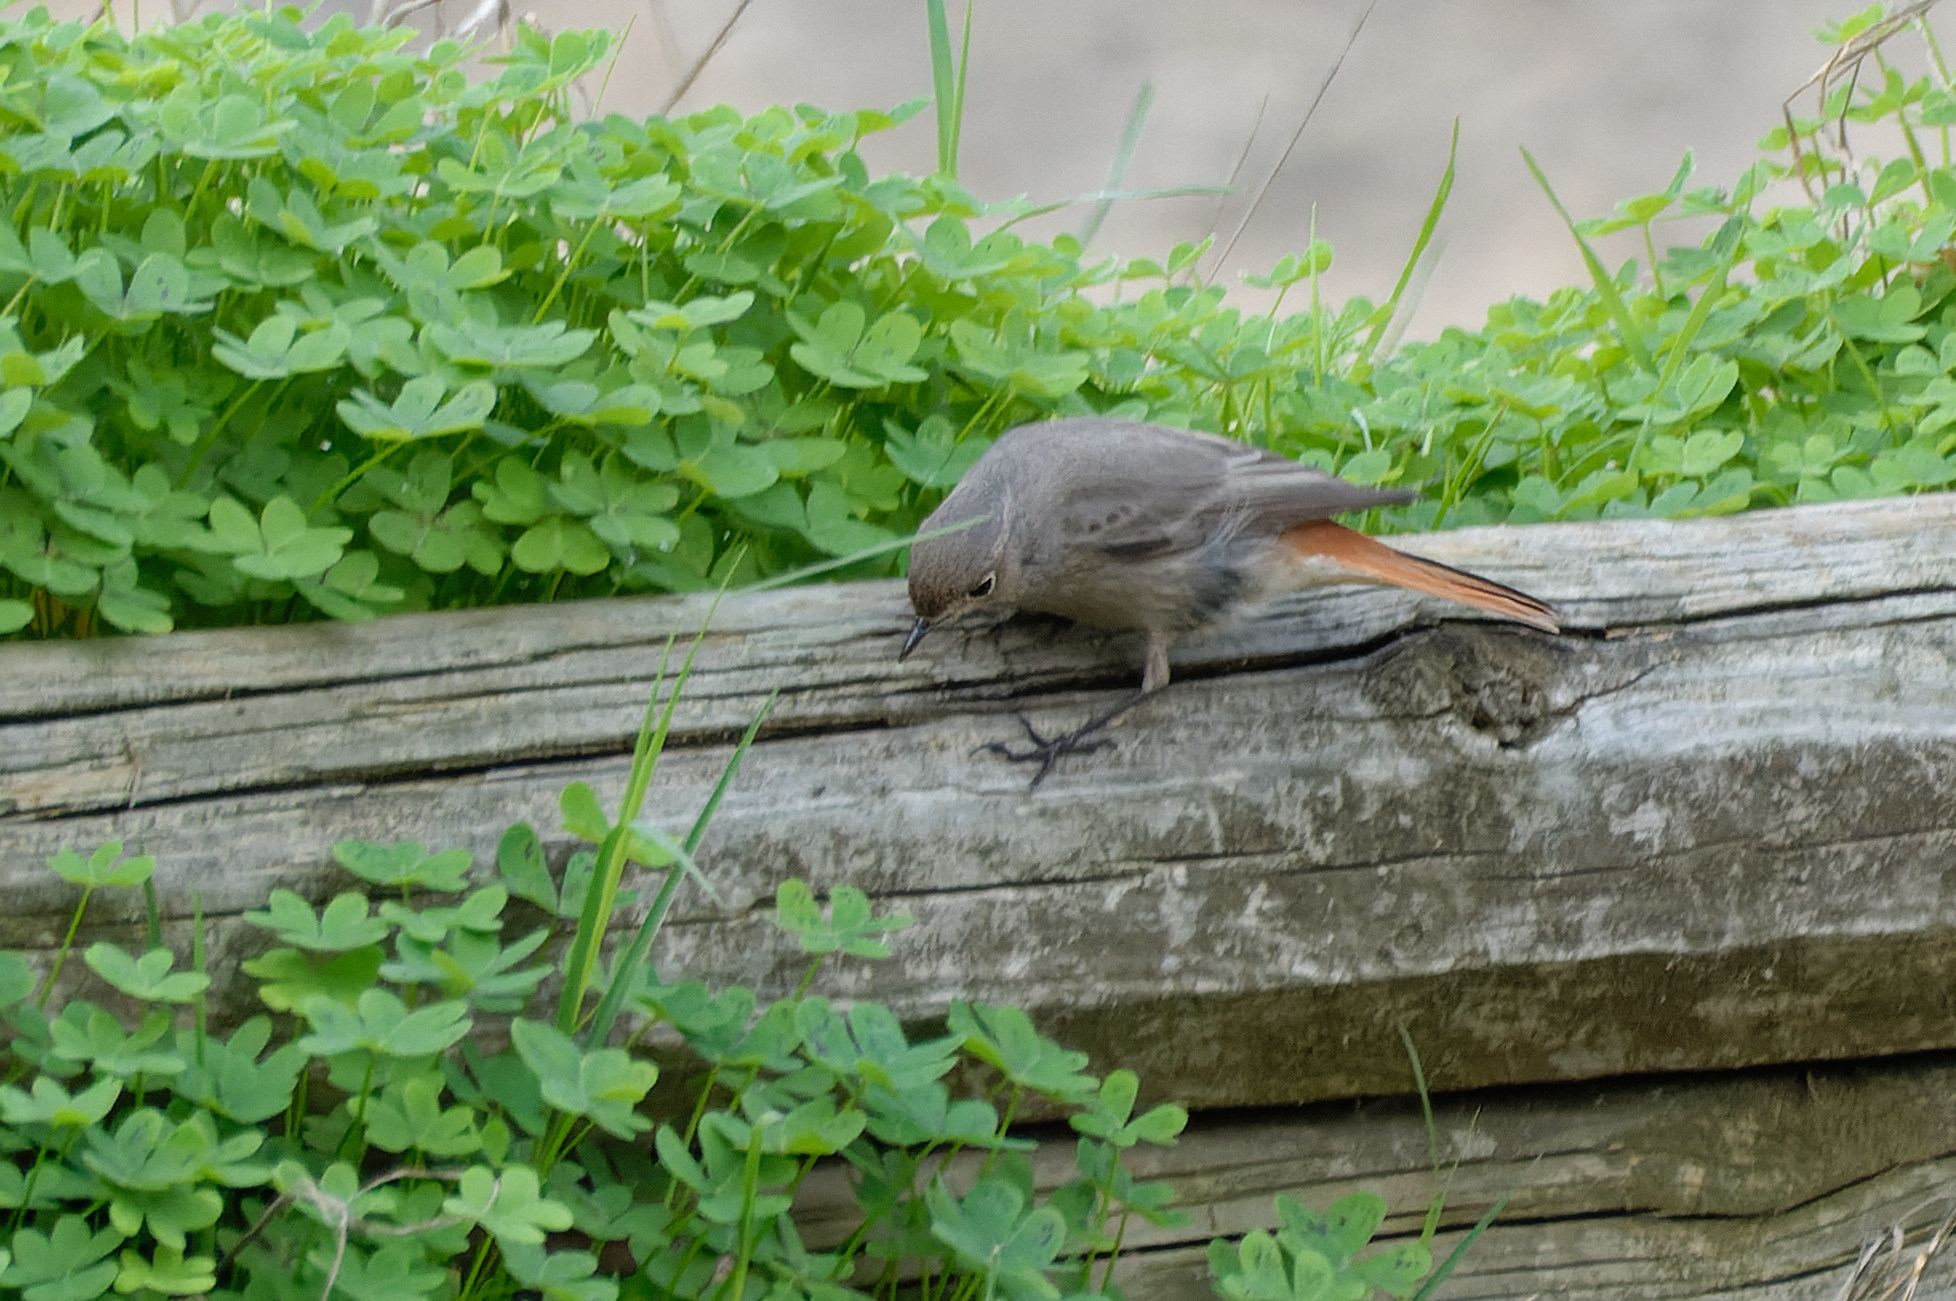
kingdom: Animalia
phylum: Chordata
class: Aves
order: Passeriformes
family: Muscicapidae
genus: Phoenicurus
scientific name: Phoenicurus ochruros
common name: Black redstart
